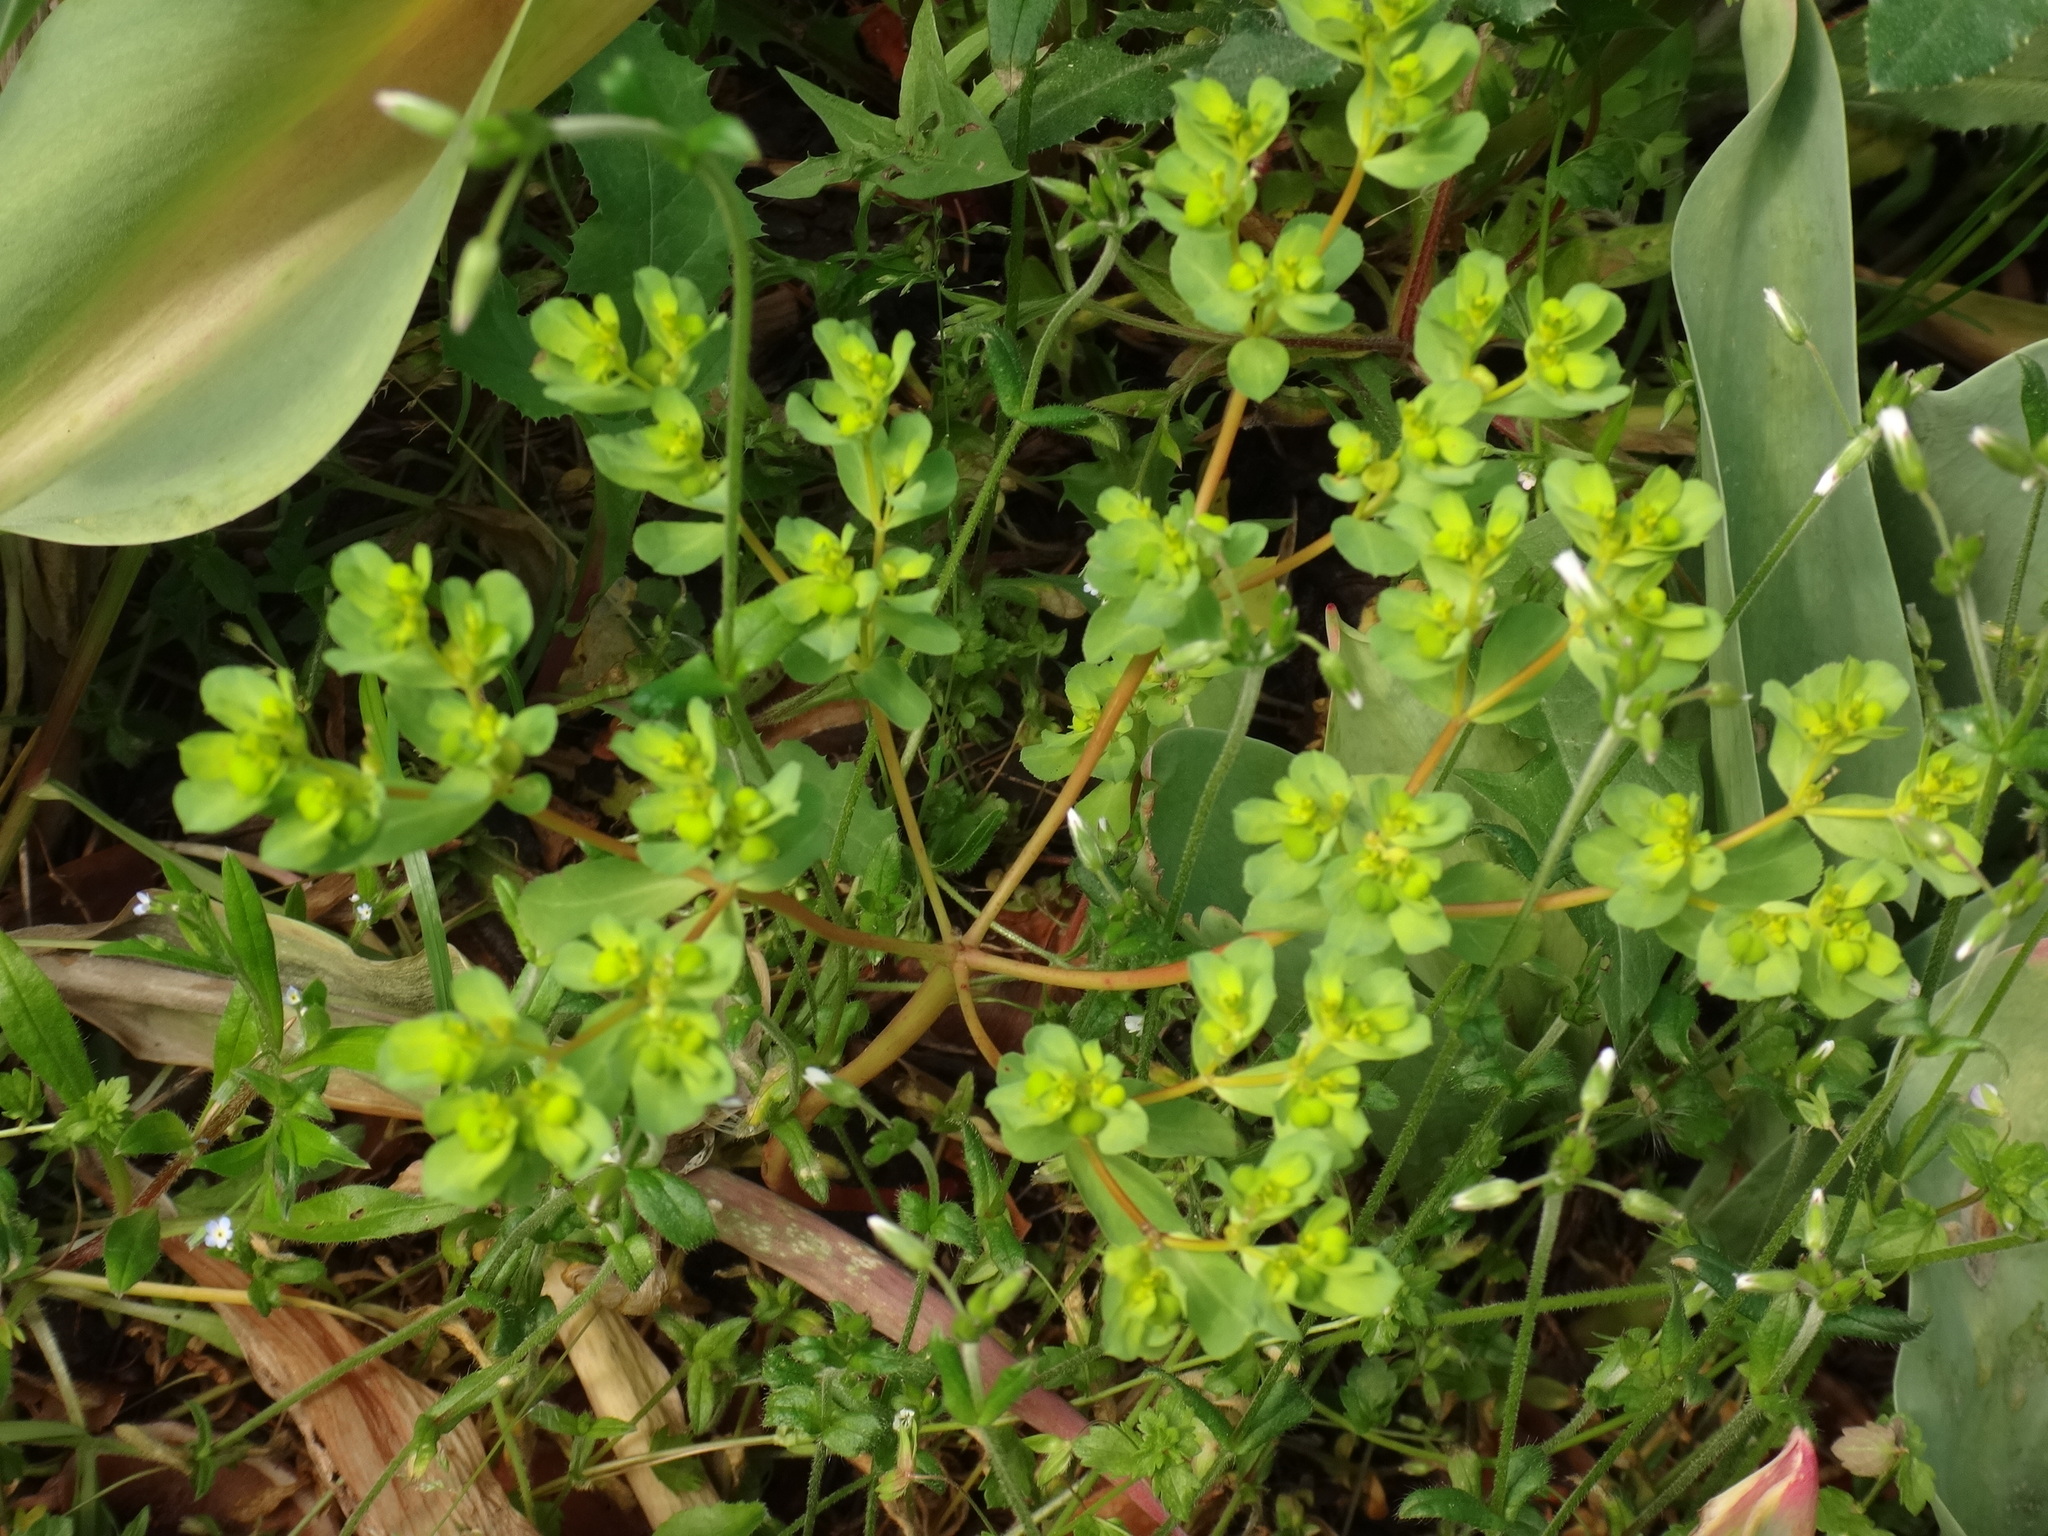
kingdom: Plantae
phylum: Tracheophyta
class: Magnoliopsida
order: Malpighiales
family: Euphorbiaceae
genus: Euphorbia
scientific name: Euphorbia helioscopia
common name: Sun spurge
